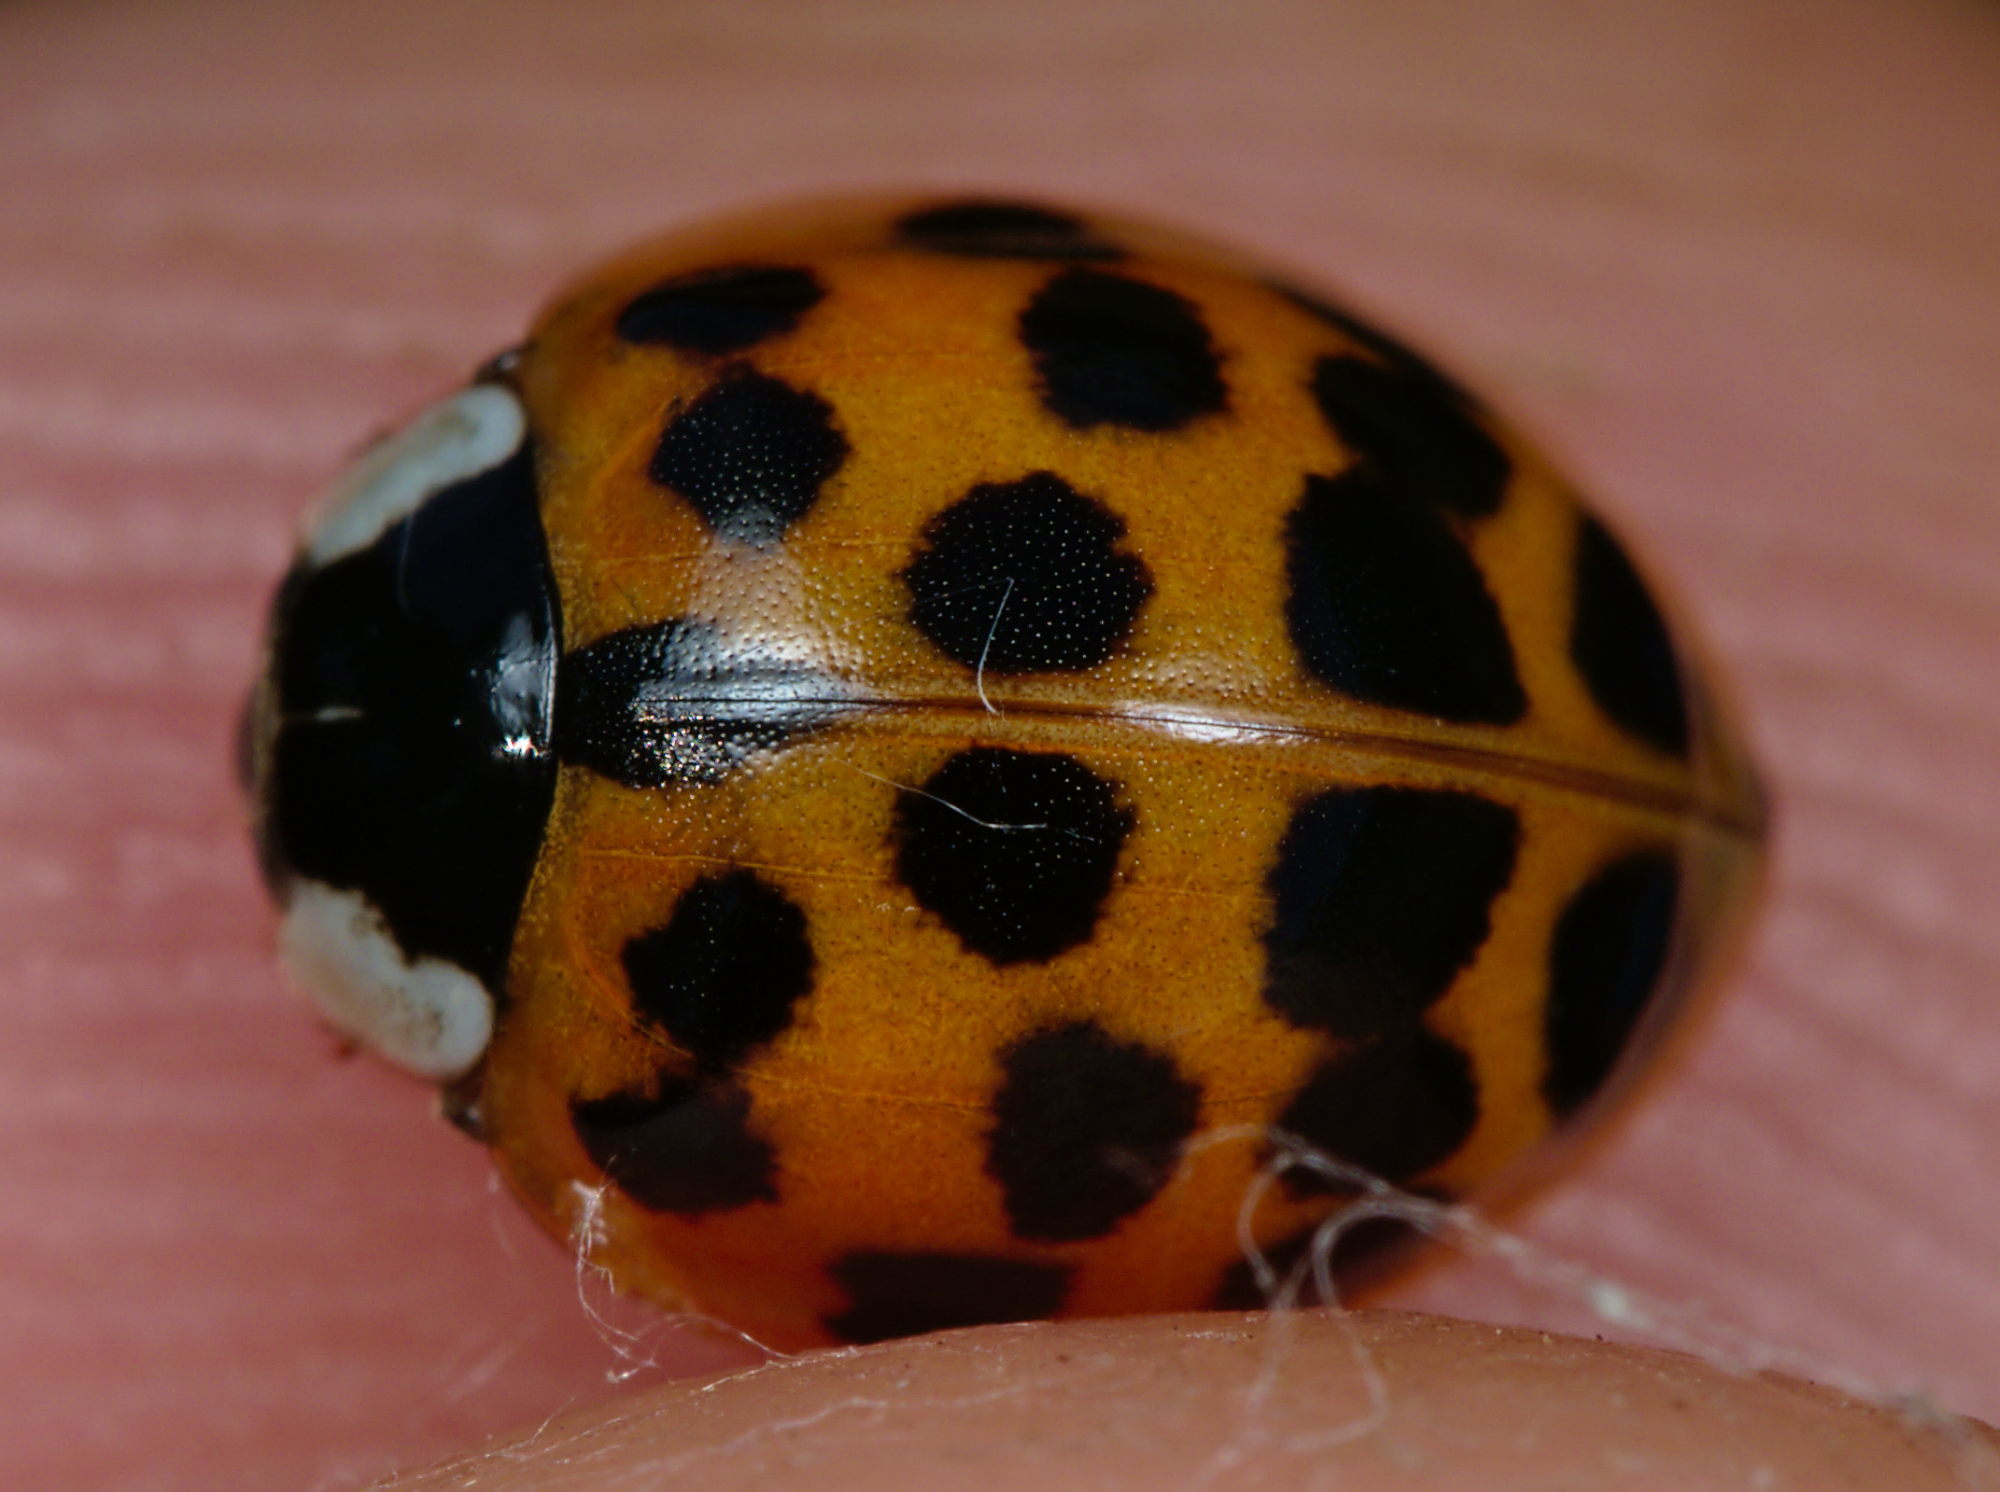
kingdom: Animalia
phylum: Arthropoda
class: Insecta
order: Coleoptera
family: Coccinellidae
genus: Harmonia
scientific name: Harmonia axyridis
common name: Harlequin ladybird
